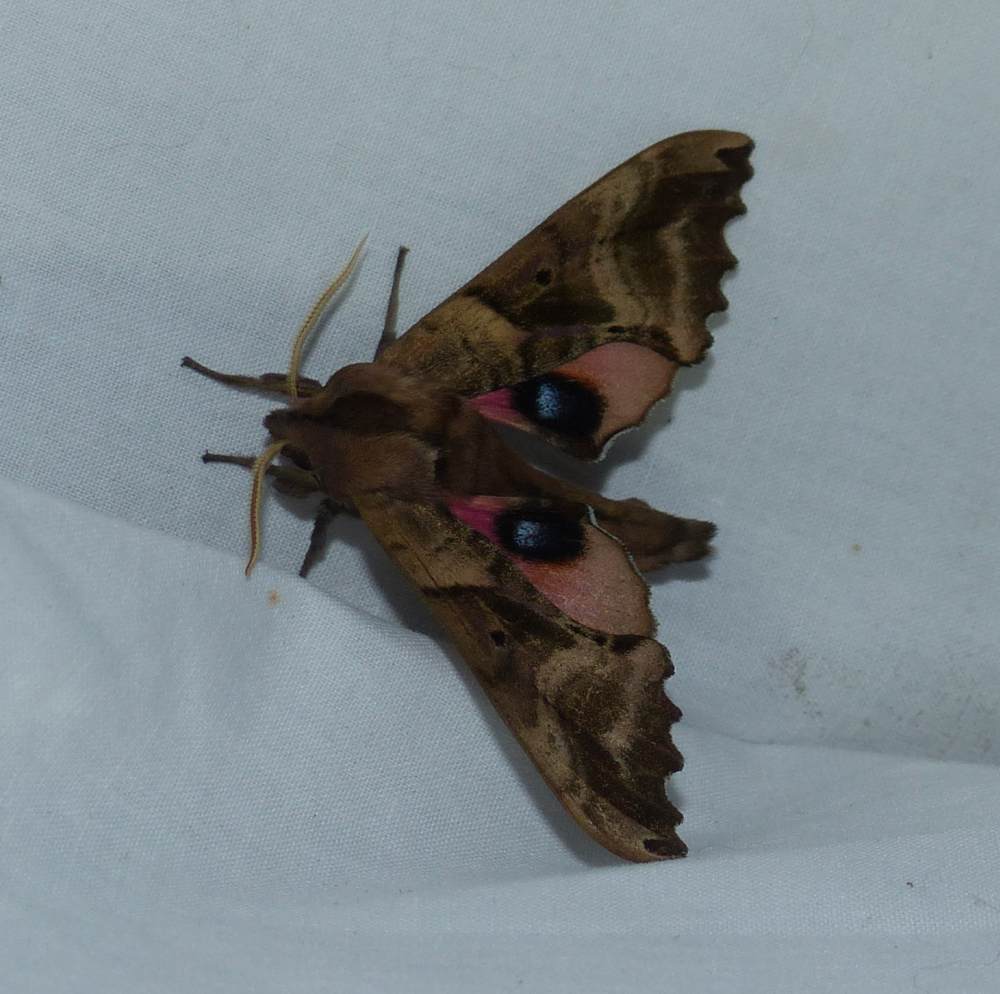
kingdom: Animalia
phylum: Arthropoda
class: Insecta
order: Lepidoptera
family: Sphingidae
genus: Paonias
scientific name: Paonias excaecata
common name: Blind-eyed sphinx
